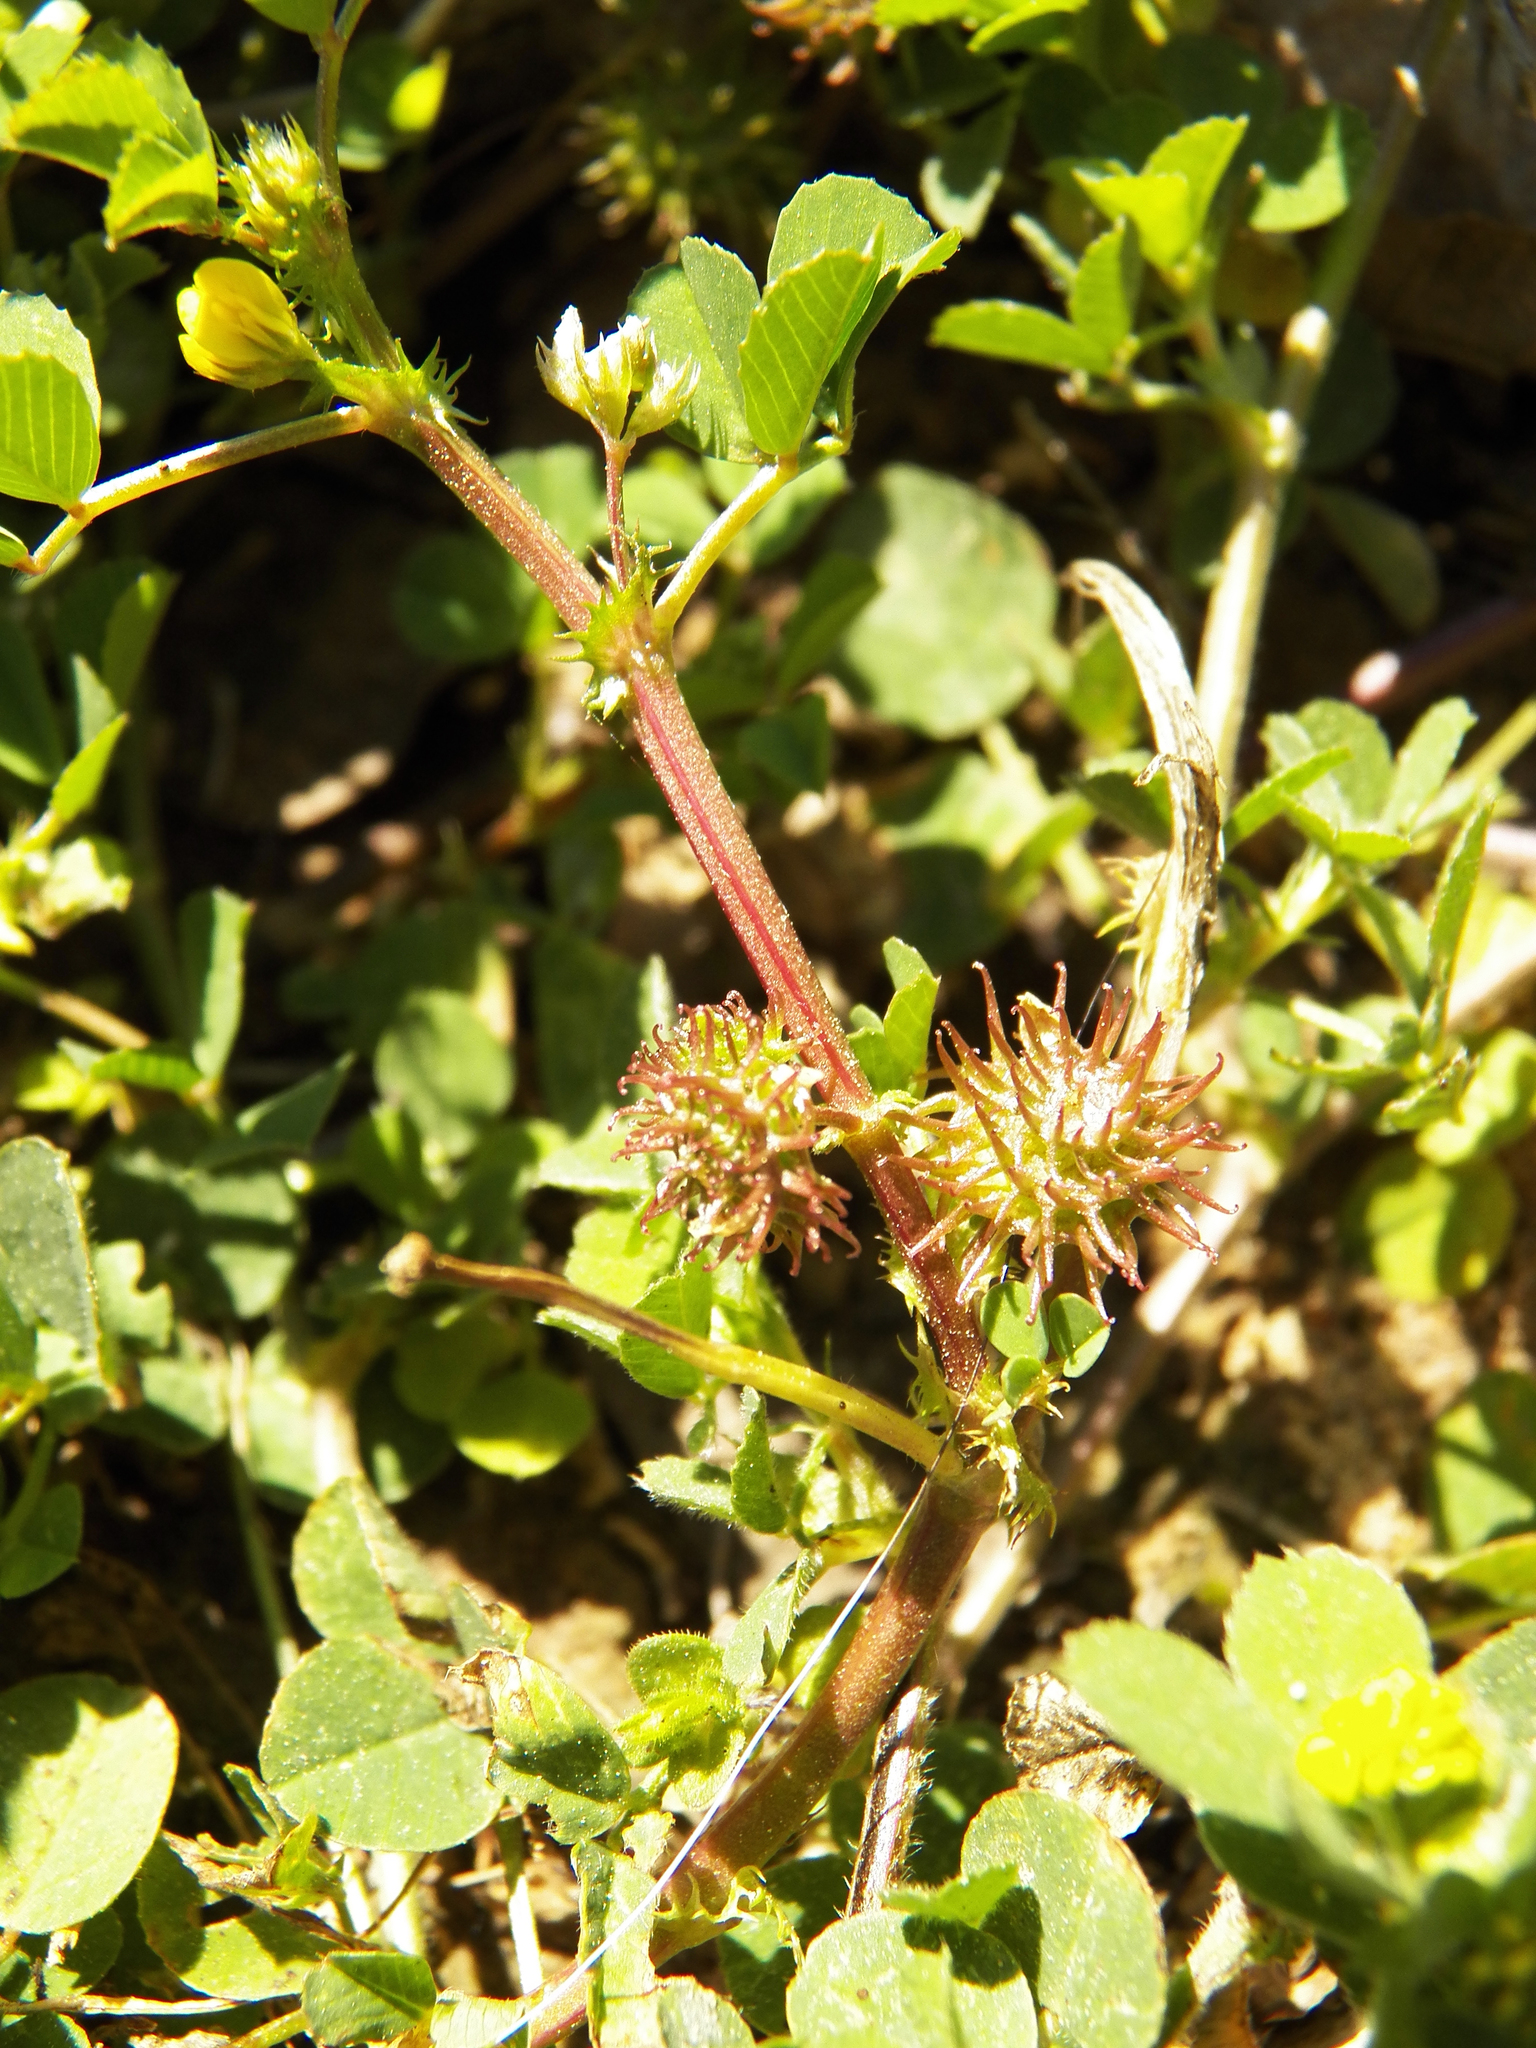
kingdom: Plantae
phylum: Tracheophyta
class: Magnoliopsida
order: Fabales
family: Fabaceae
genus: Medicago
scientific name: Medicago polymorpha
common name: Burclover
